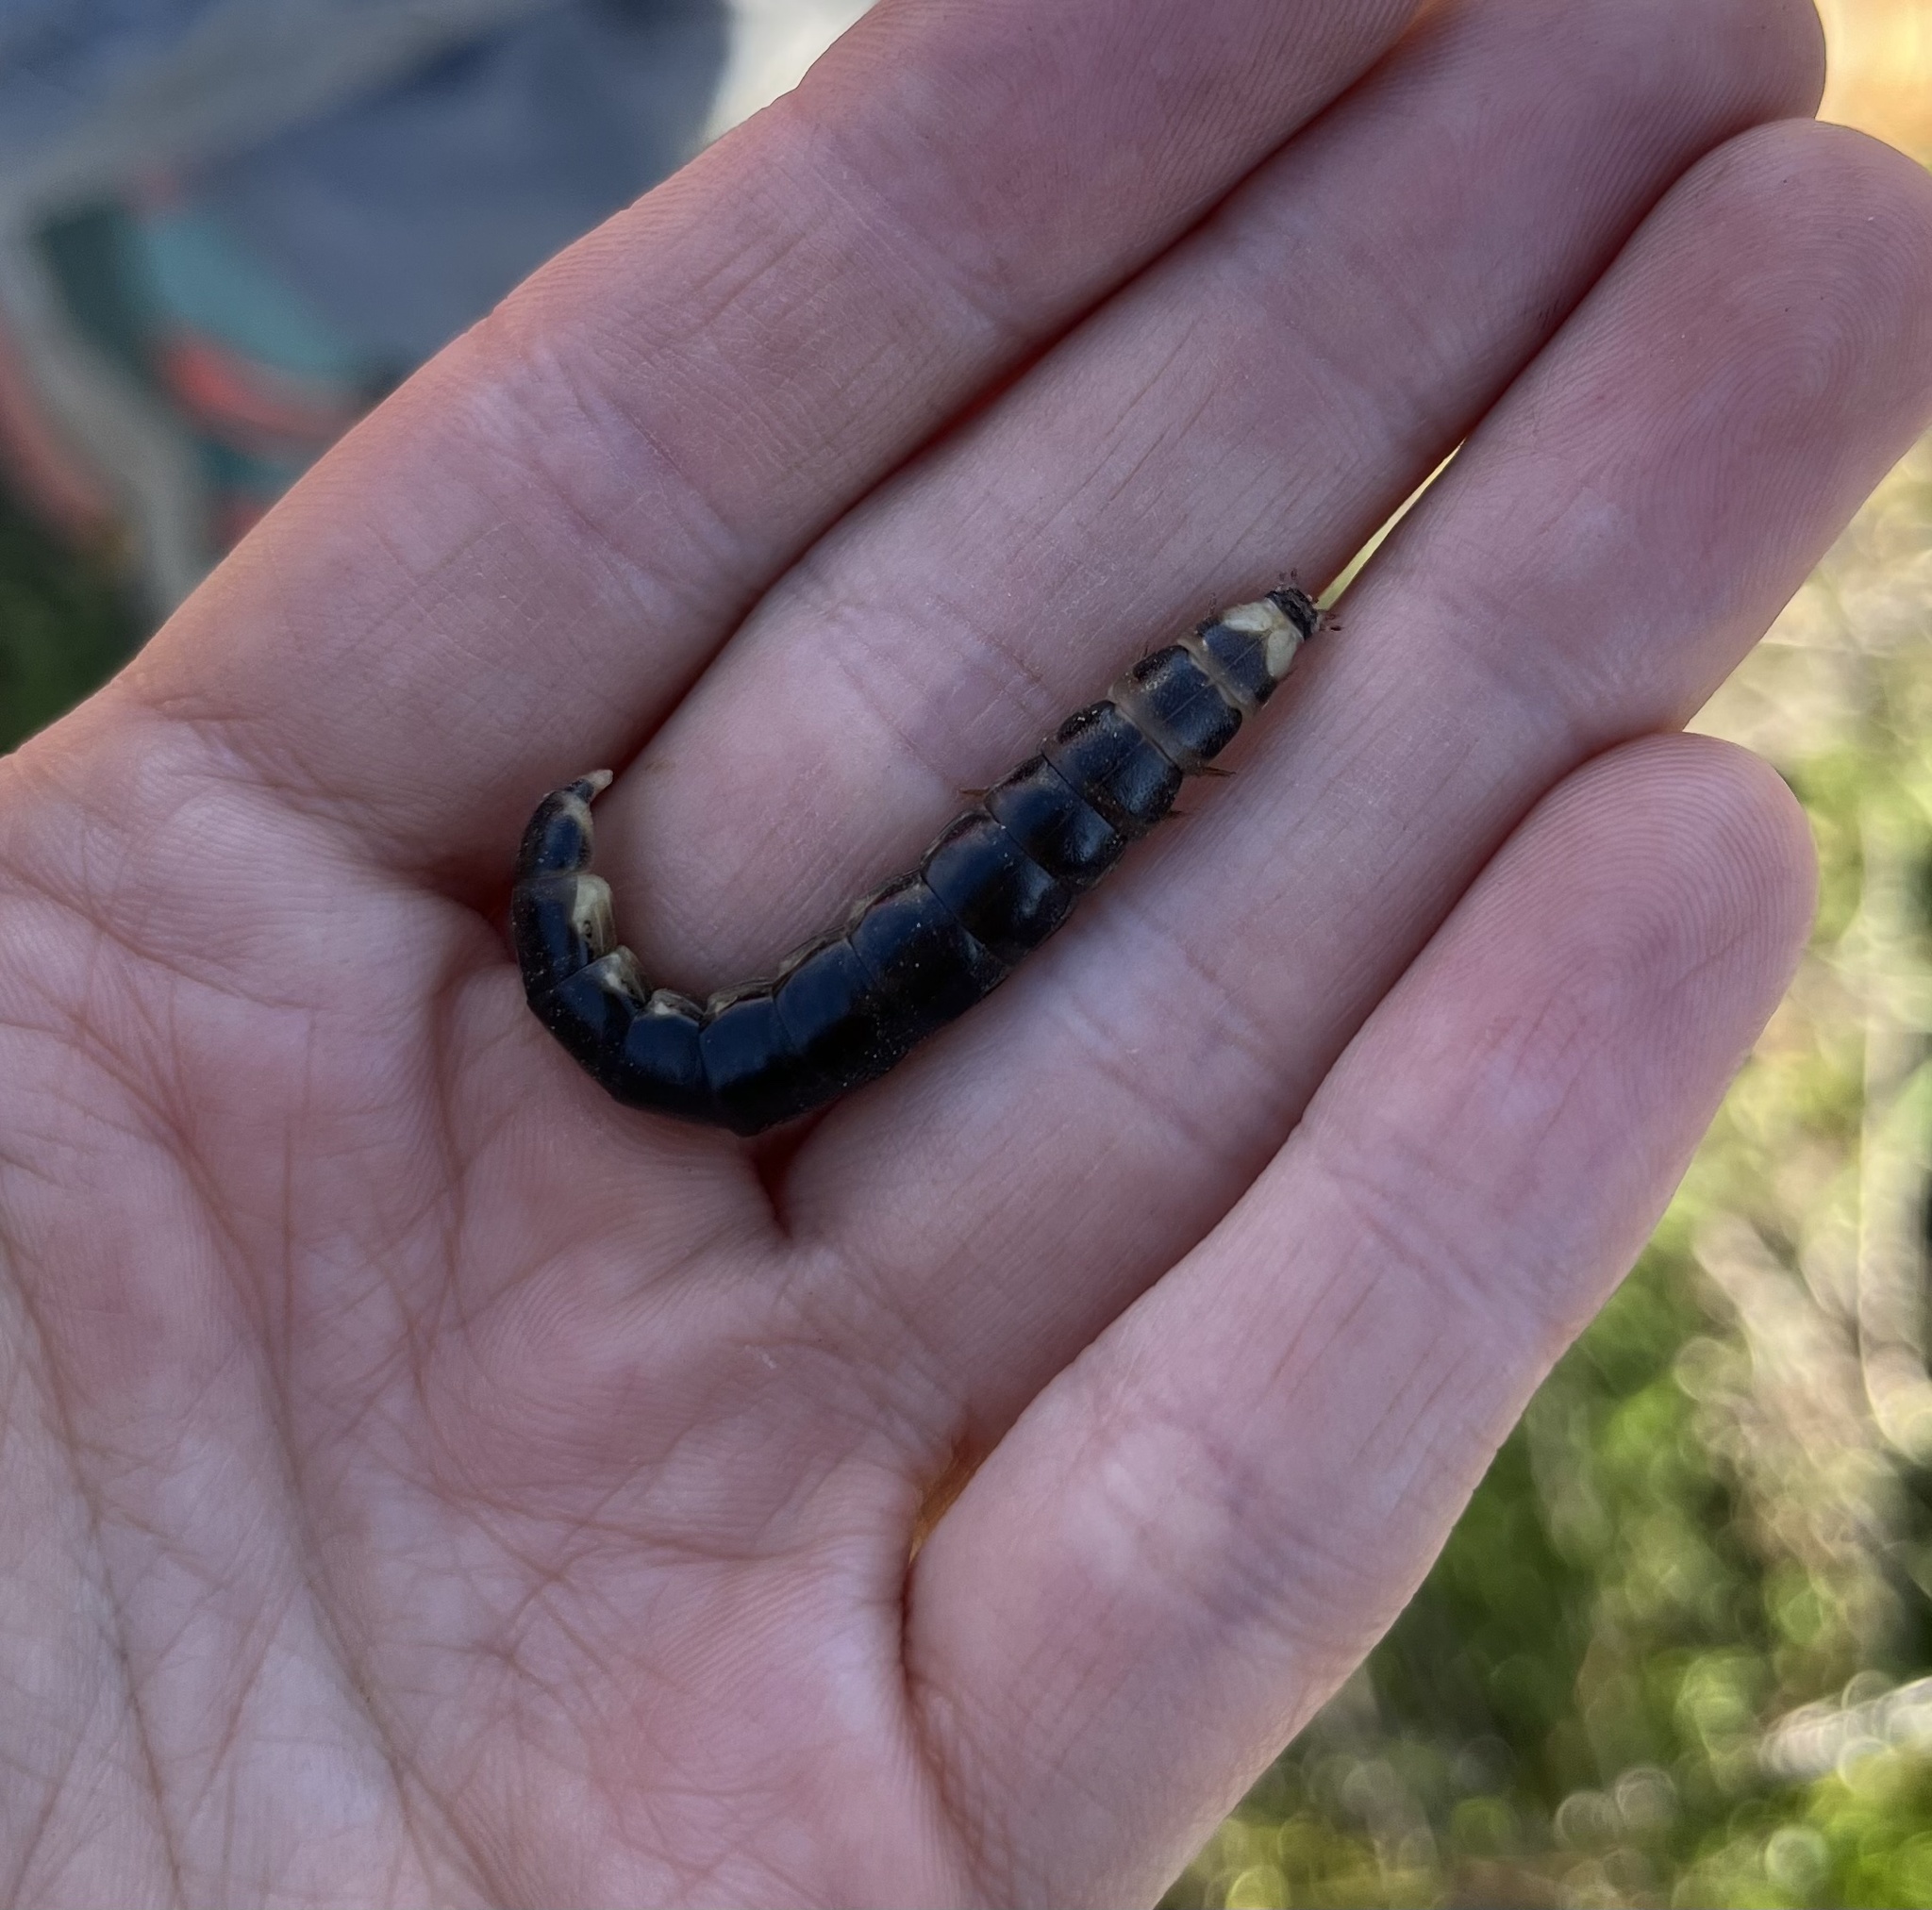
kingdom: Animalia
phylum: Arthropoda
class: Insecta
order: Coleoptera
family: Phengodidae
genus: Zarhipis
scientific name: Zarhipis integripennis
